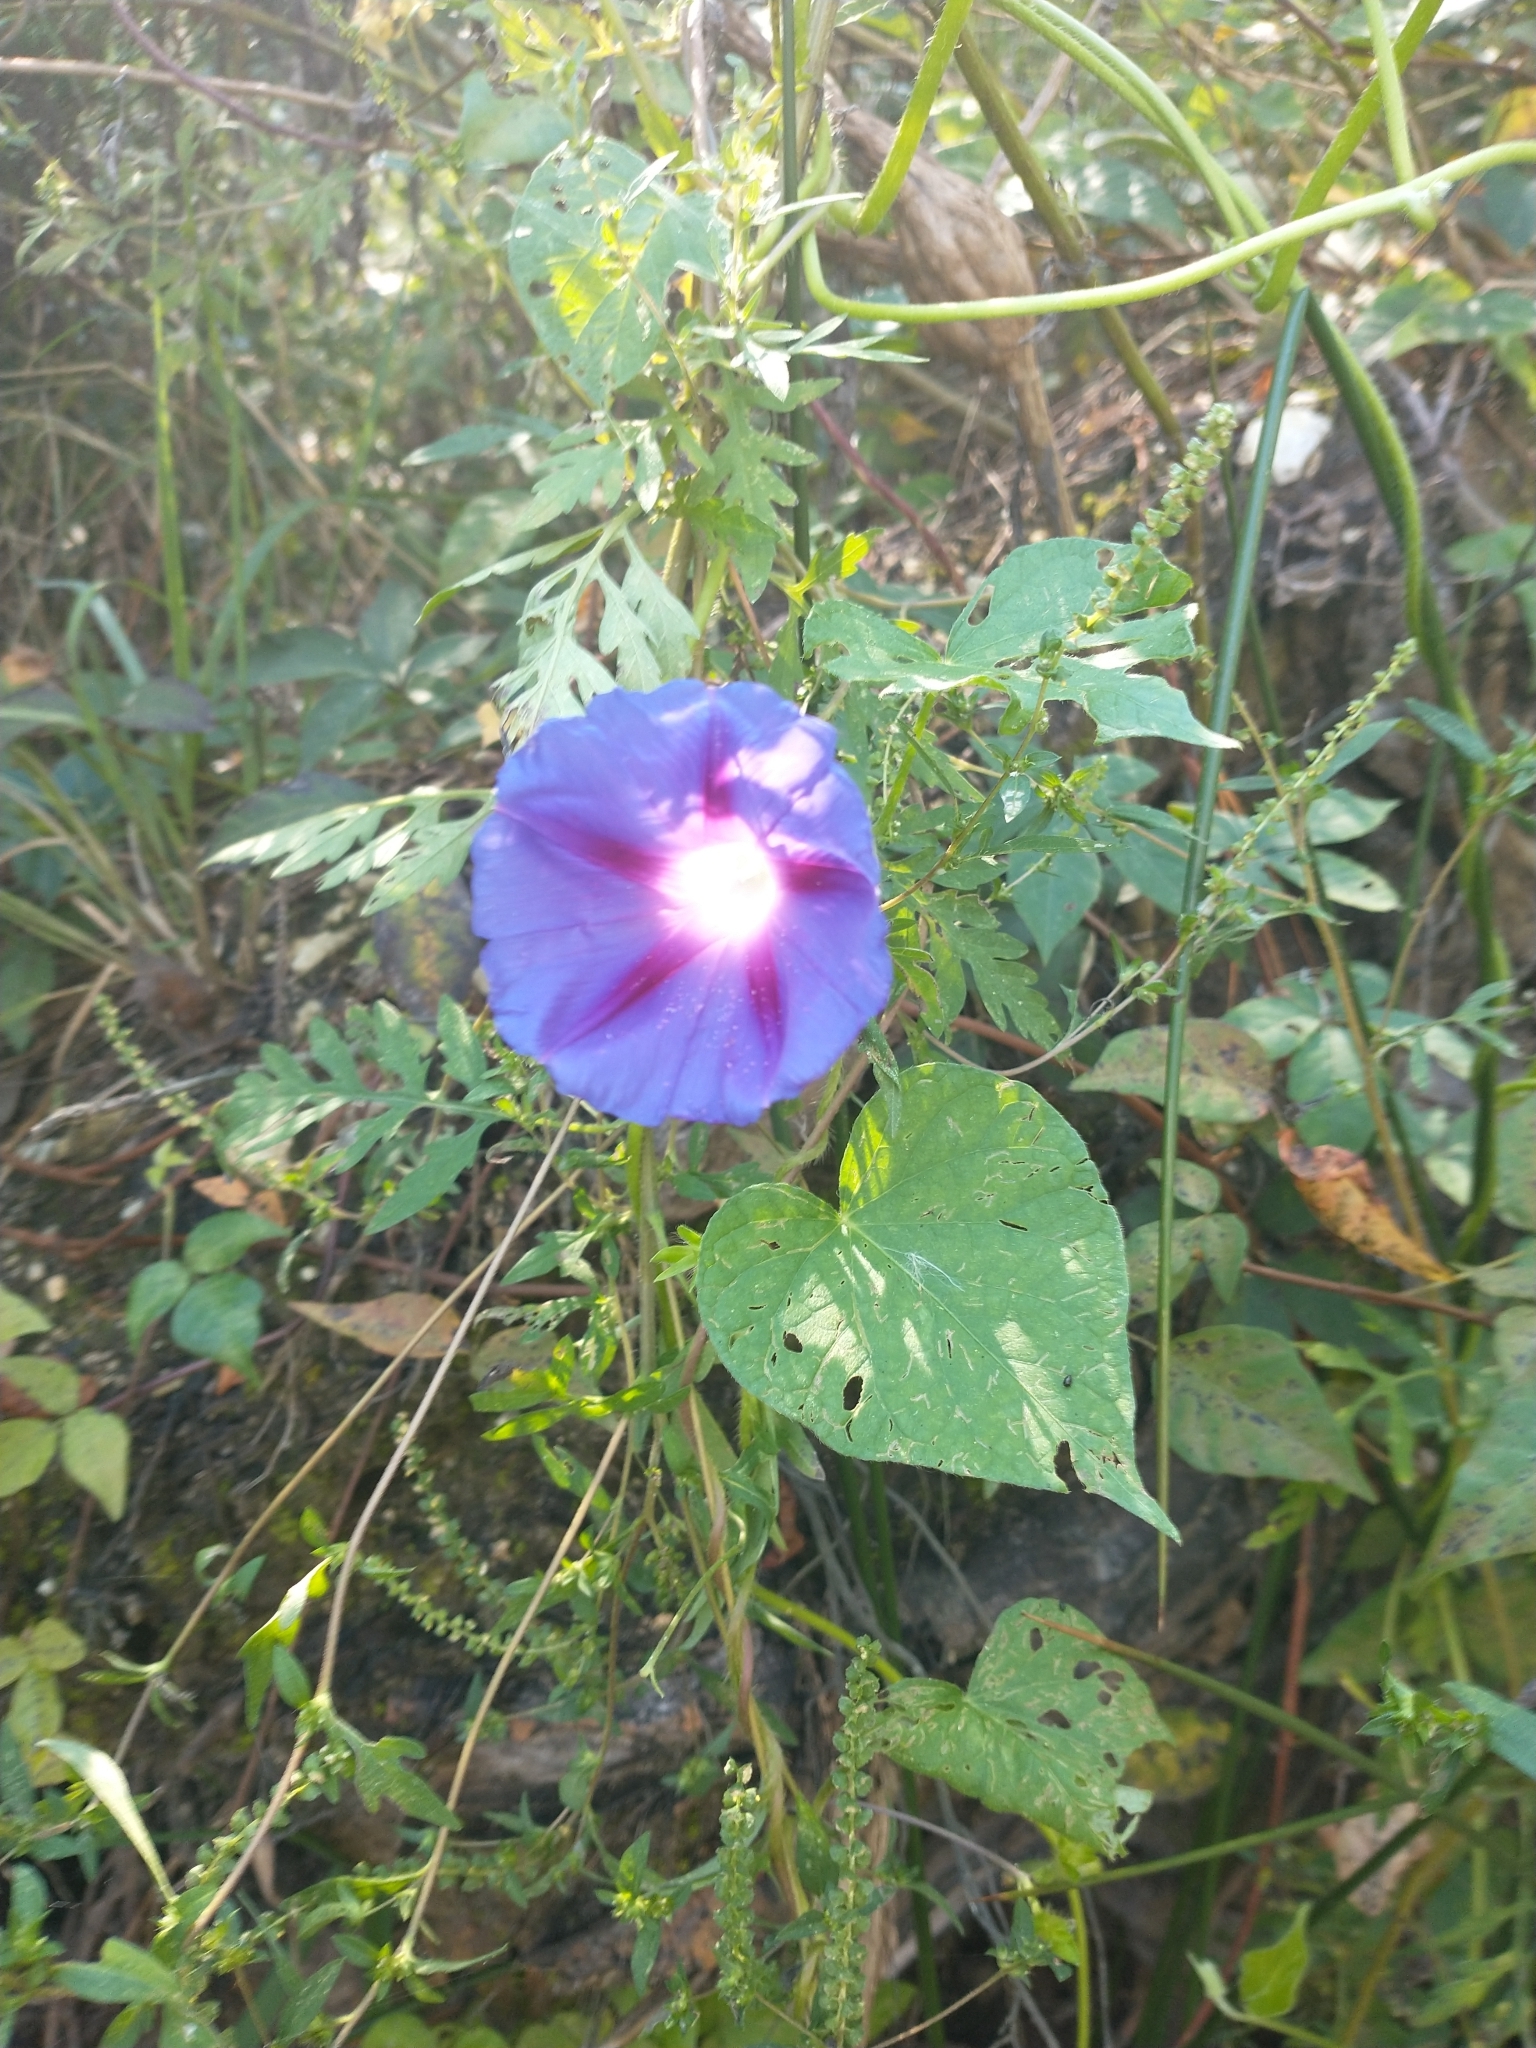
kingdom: Plantae
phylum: Tracheophyta
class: Magnoliopsida
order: Solanales
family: Convolvulaceae
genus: Ipomoea
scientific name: Ipomoea purpurea
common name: Common morning-glory
